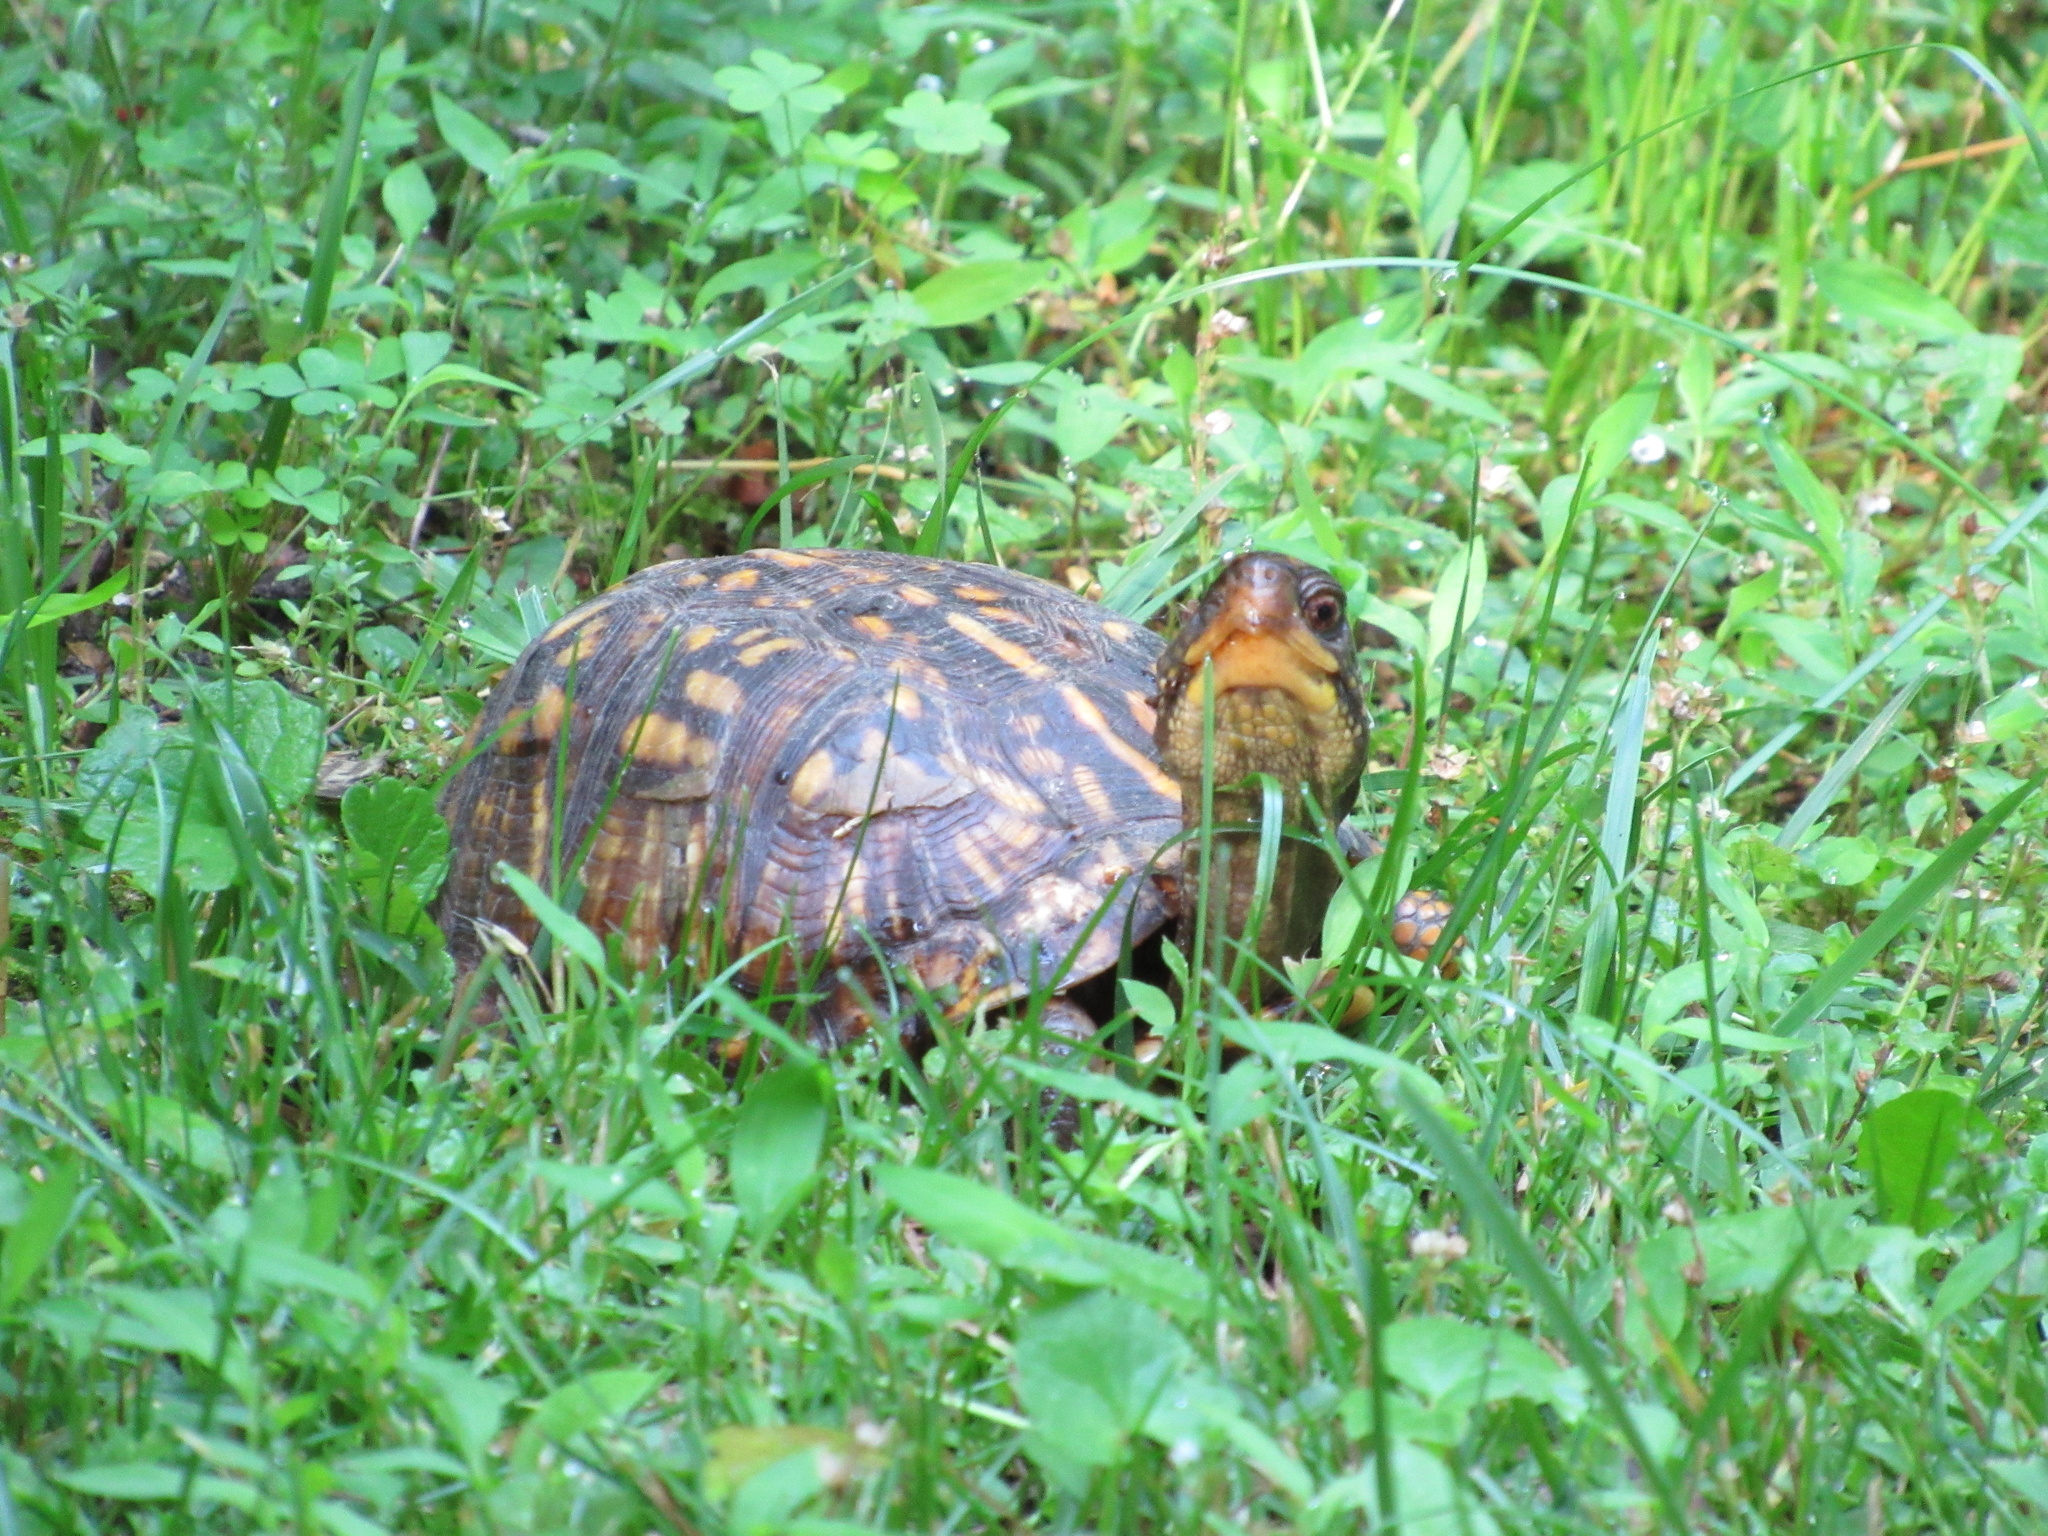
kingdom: Animalia
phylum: Chordata
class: Testudines
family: Emydidae
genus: Terrapene
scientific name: Terrapene carolina
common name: Common box turtle
